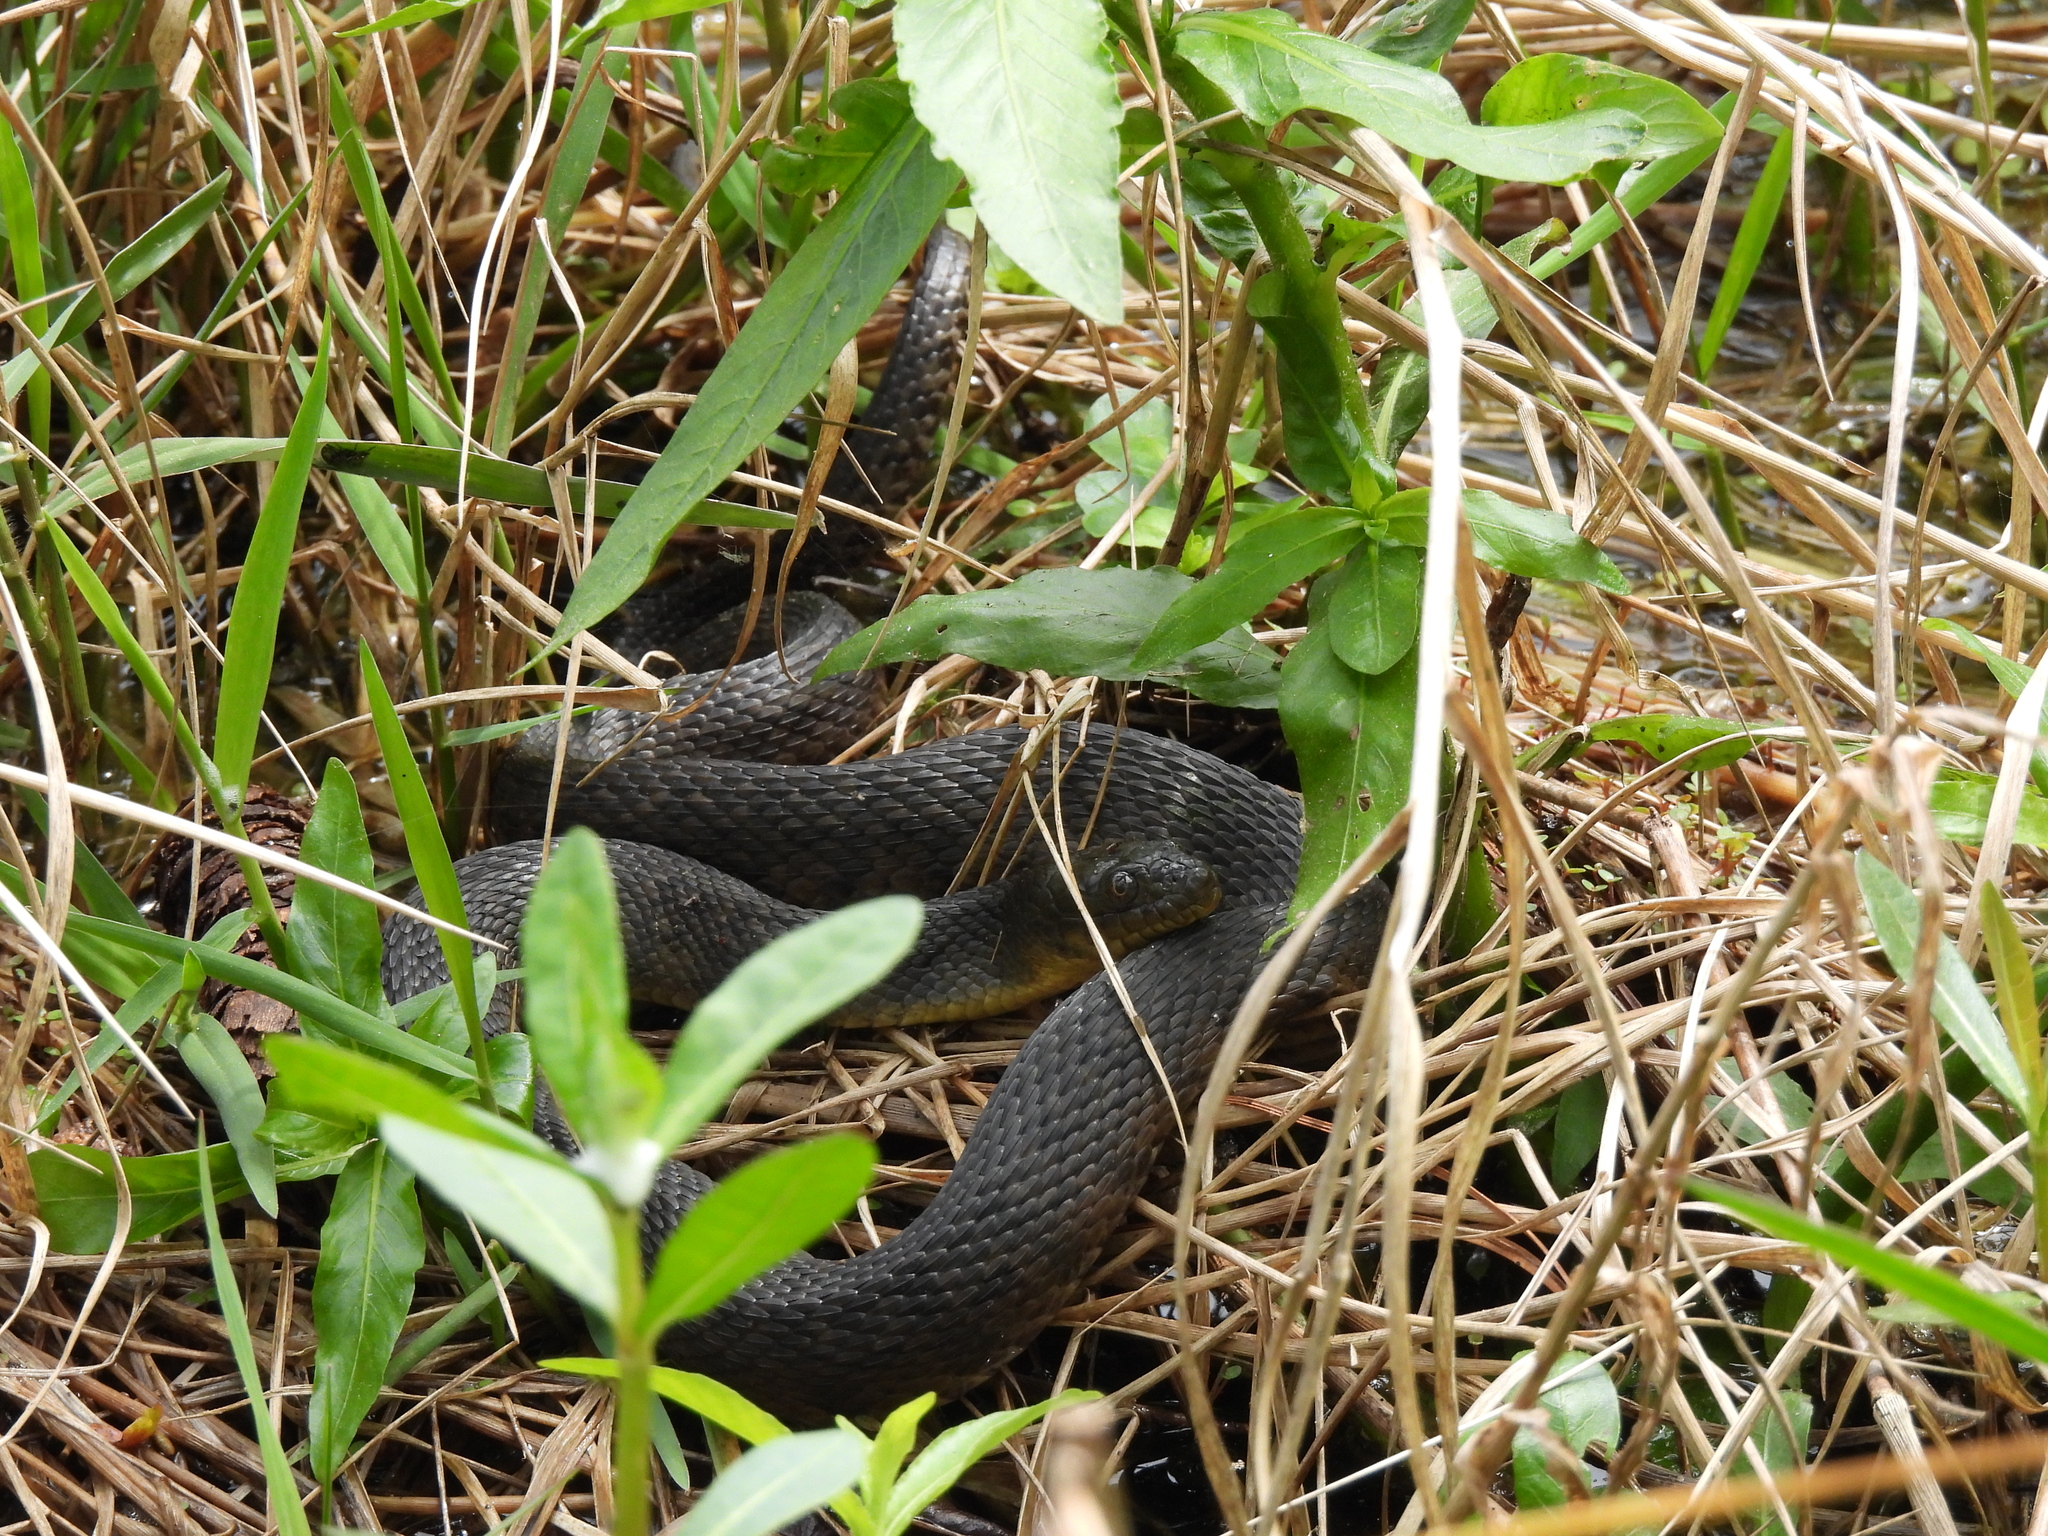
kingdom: Animalia
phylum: Chordata
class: Squamata
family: Colubridae
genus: Nerodia
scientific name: Nerodia cyclopion
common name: Mississippi green water snake
